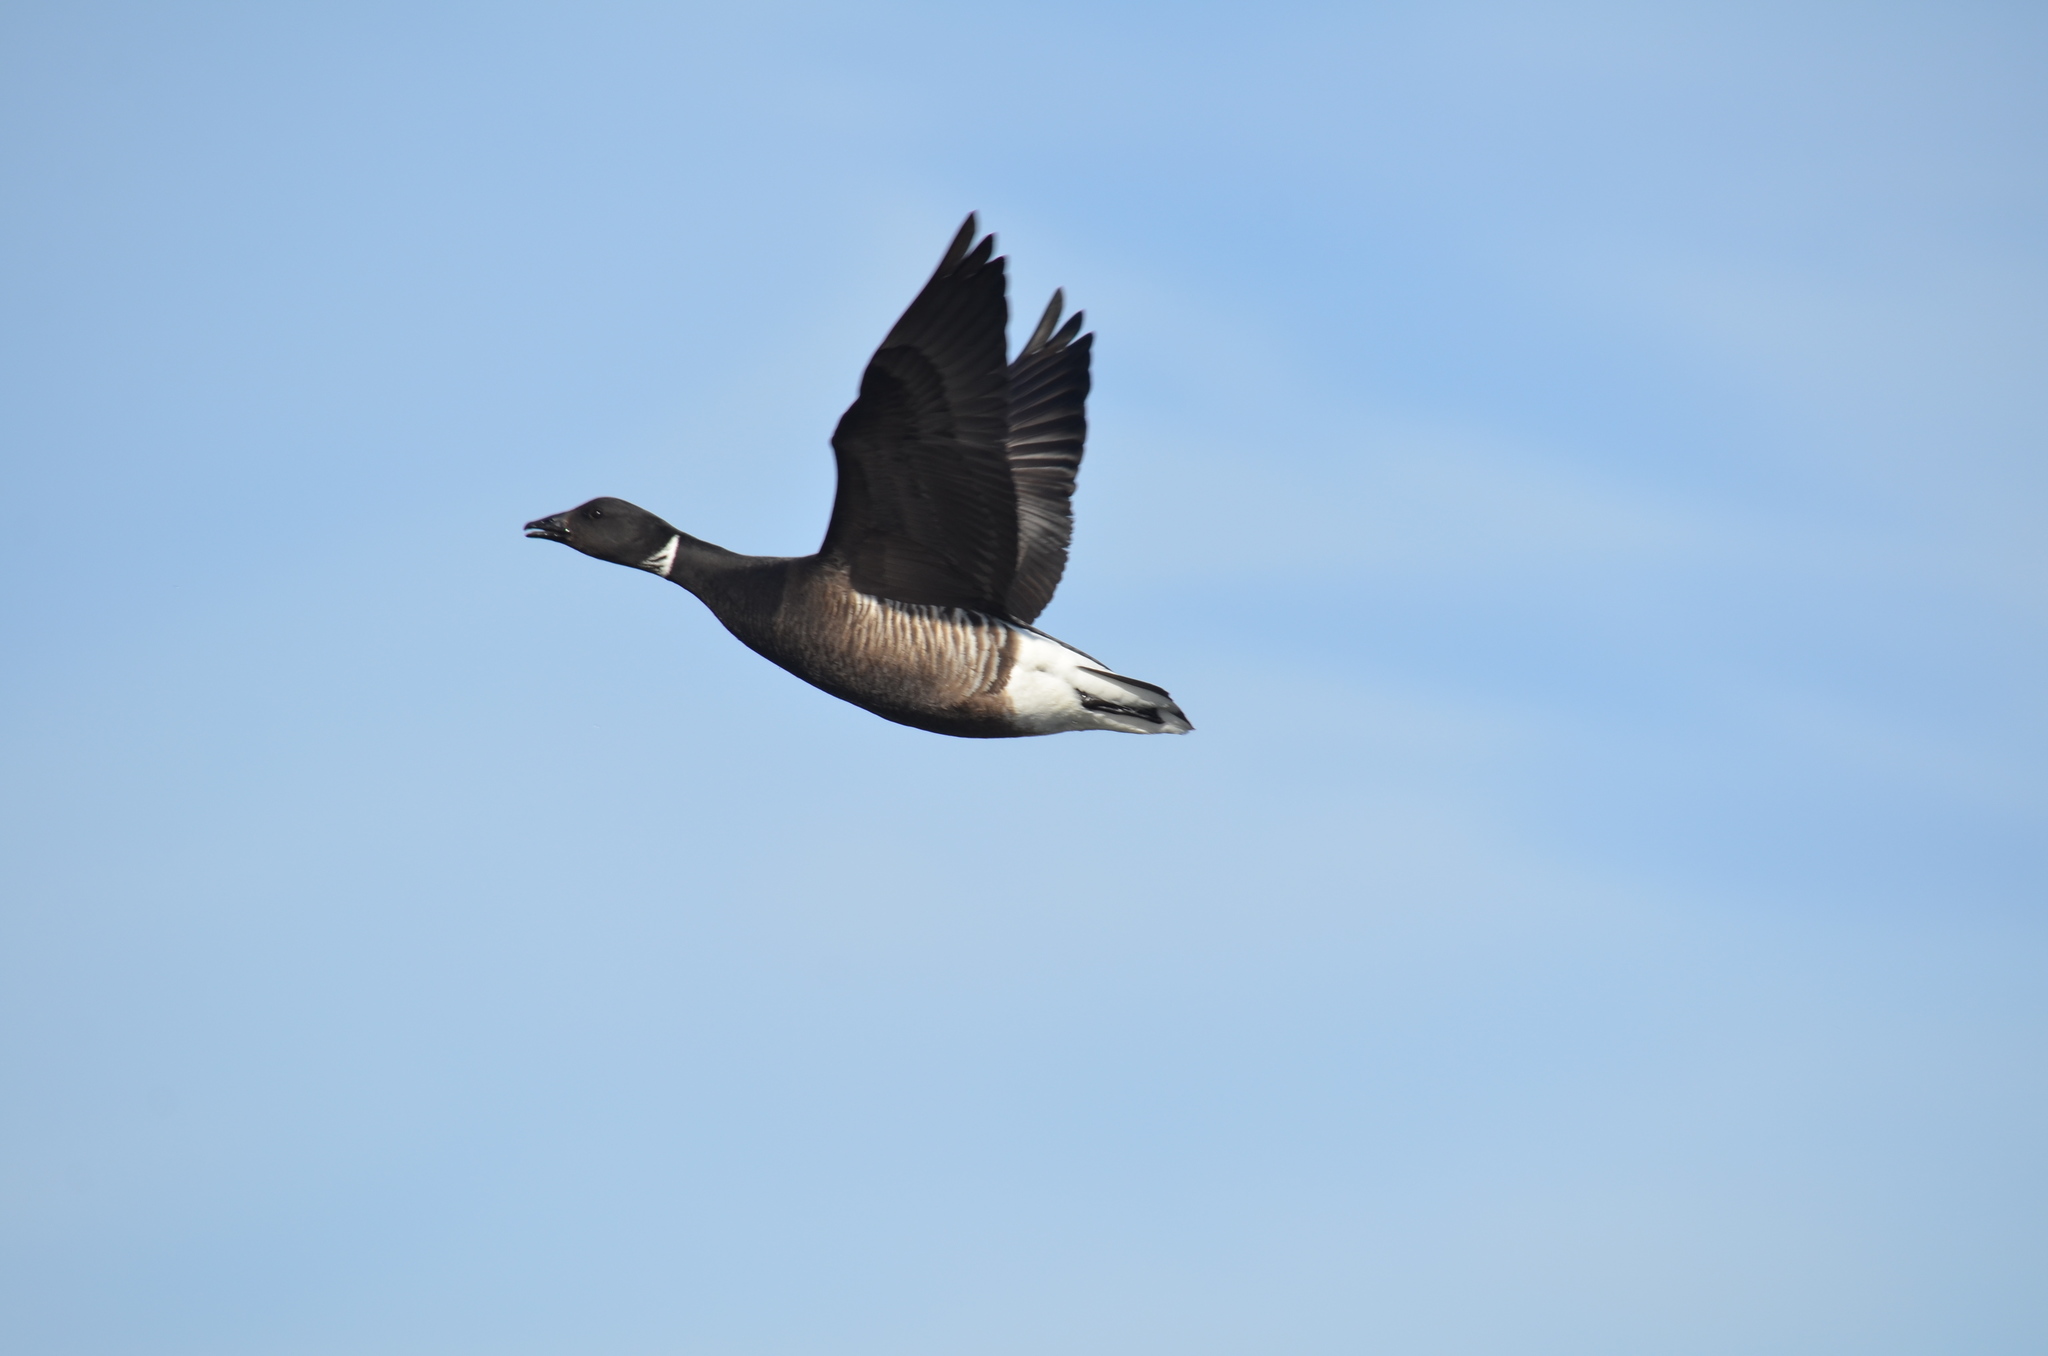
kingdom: Animalia
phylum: Chordata
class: Aves
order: Anseriformes
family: Anatidae
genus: Branta
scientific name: Branta bernicla
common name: Brant goose
